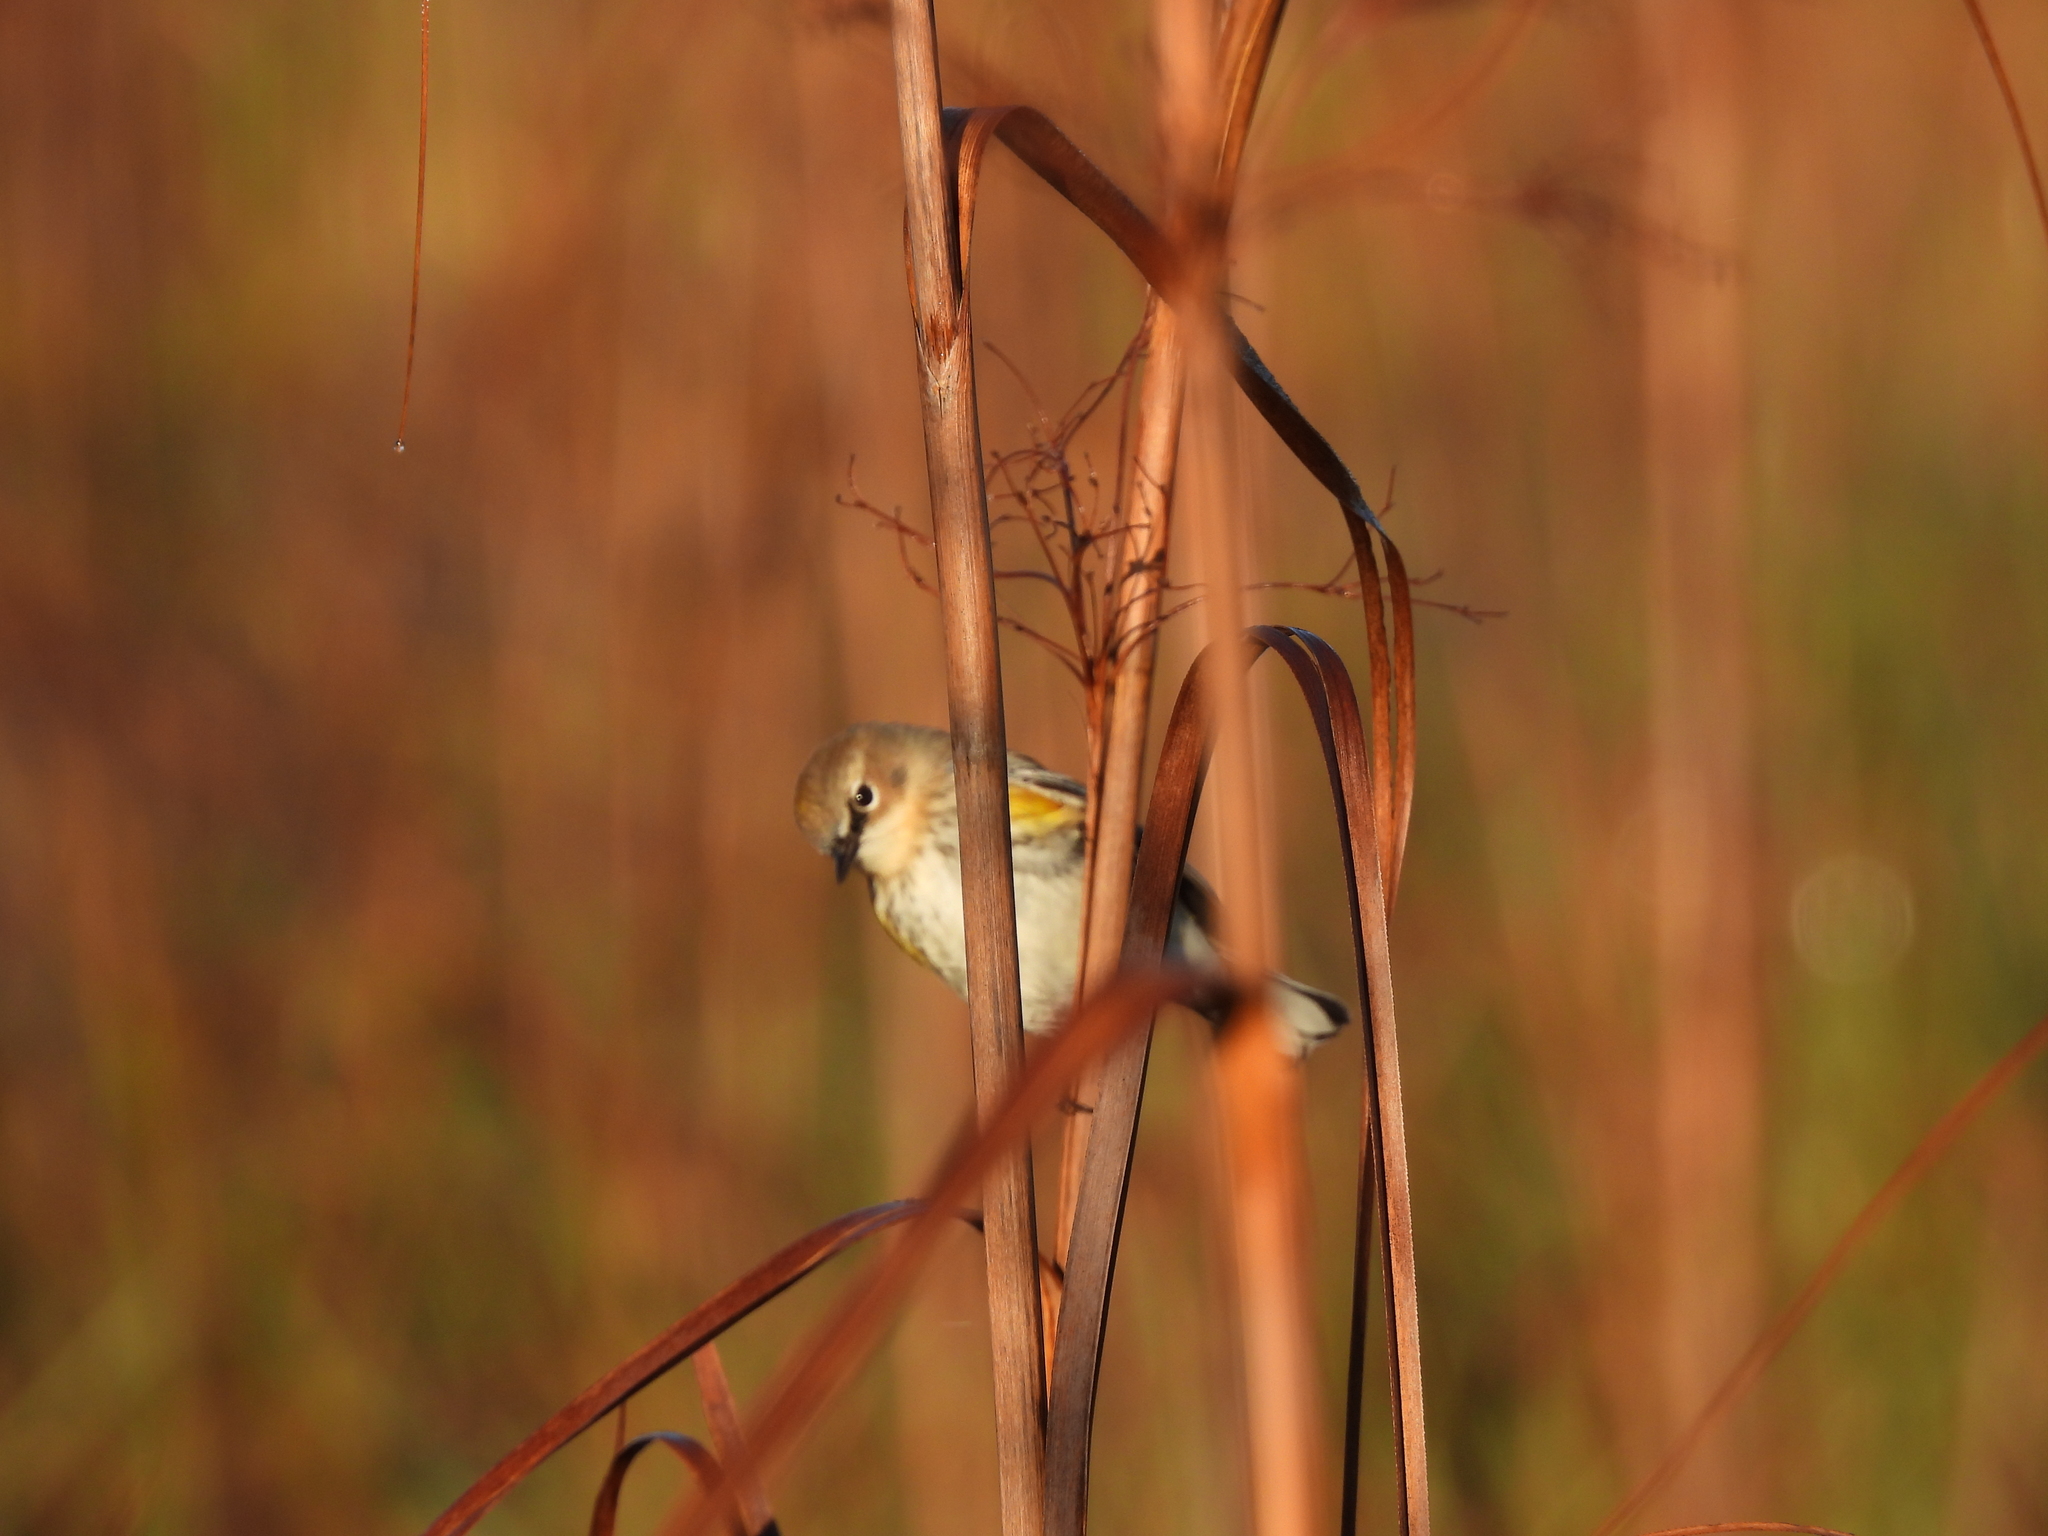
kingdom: Animalia
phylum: Chordata
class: Aves
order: Passeriformes
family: Parulidae
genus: Setophaga
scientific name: Setophaga coronata
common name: Myrtle warbler
